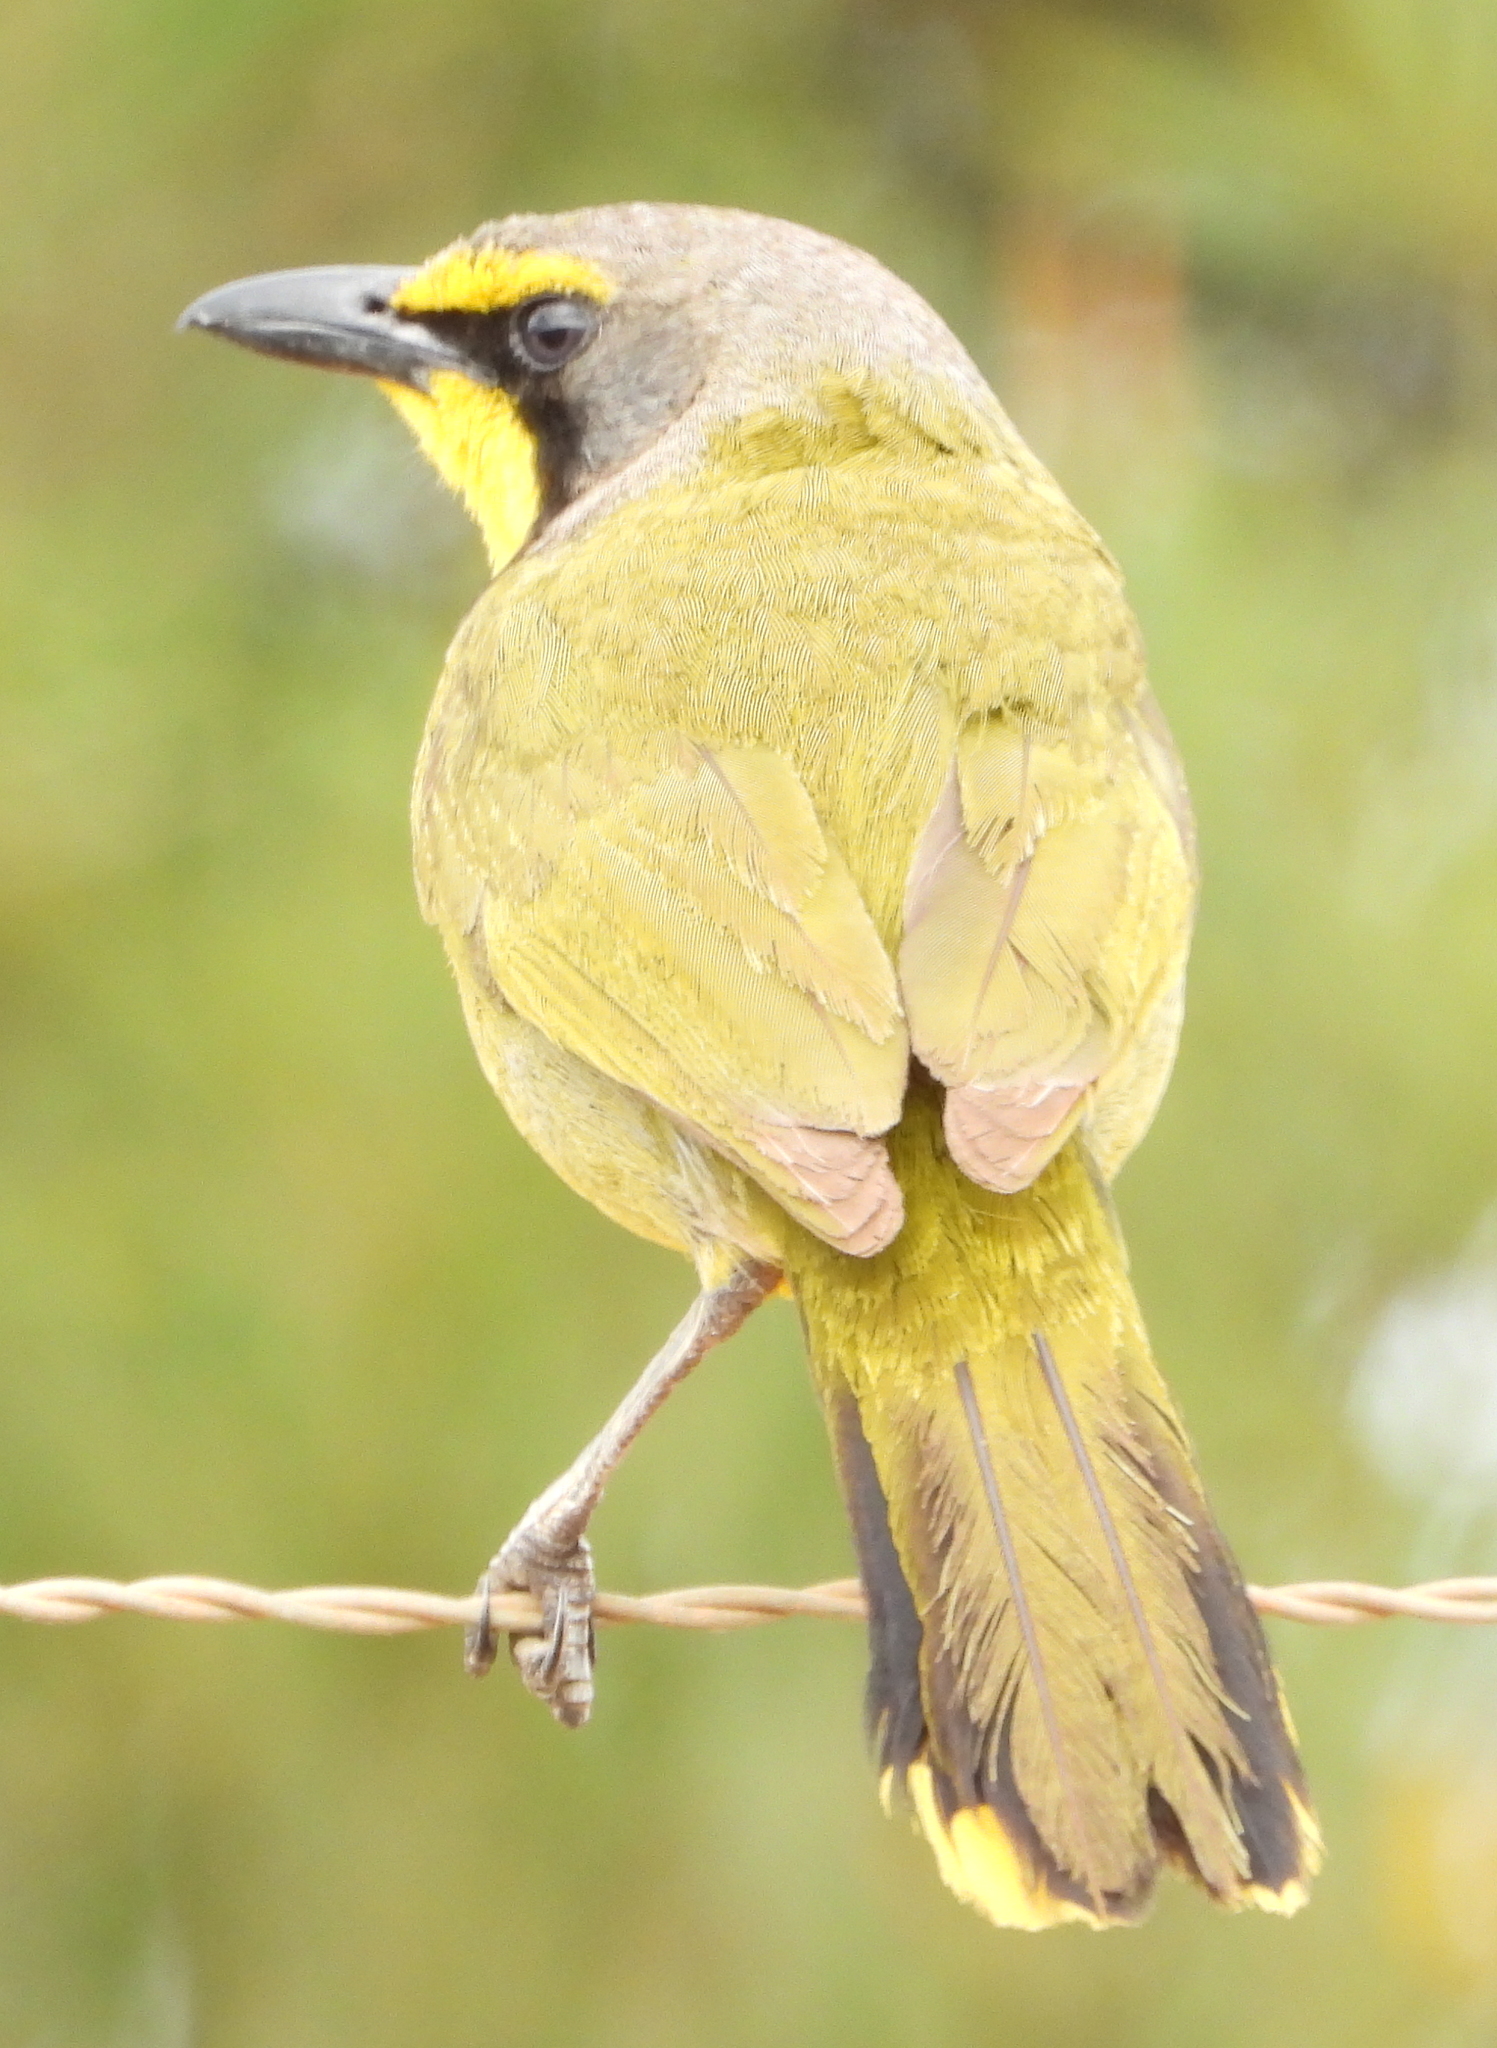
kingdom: Animalia
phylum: Chordata
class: Aves
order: Passeriformes
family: Malaconotidae
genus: Telophorus
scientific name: Telophorus zeylonus
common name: Bokmakierie
